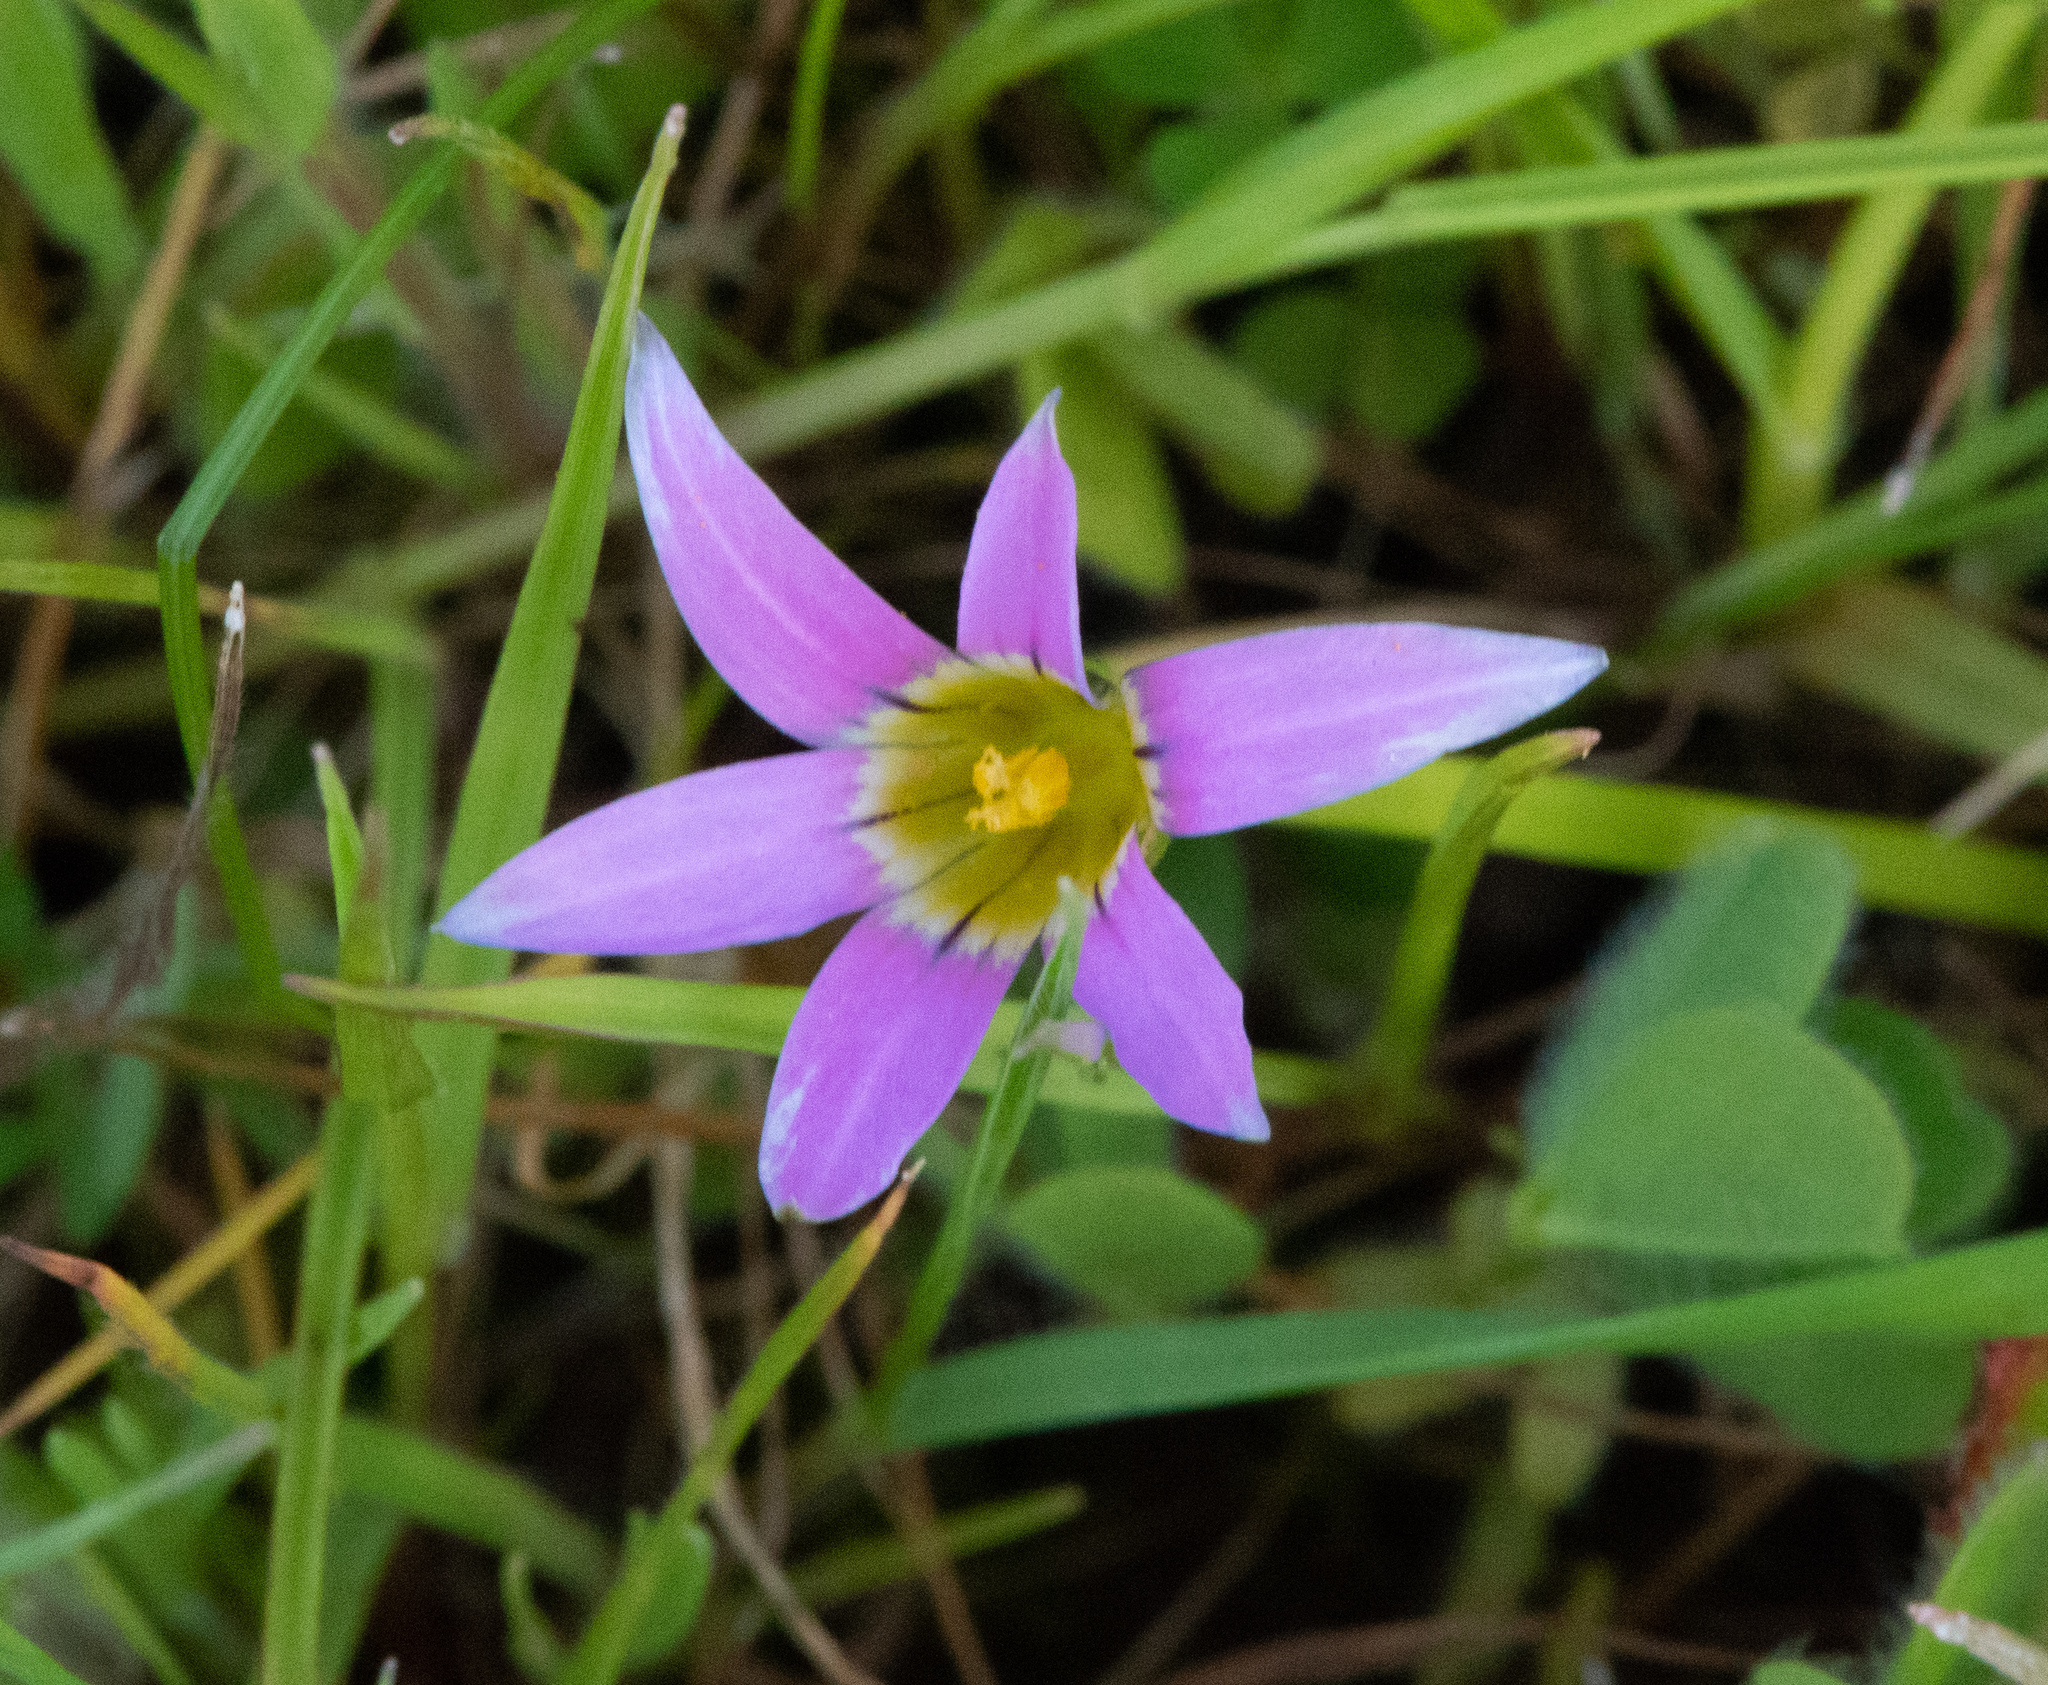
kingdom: Plantae
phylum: Tracheophyta
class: Liliopsida
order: Asparagales
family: Iridaceae
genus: Romulea
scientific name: Romulea rosea
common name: Oniongrass
